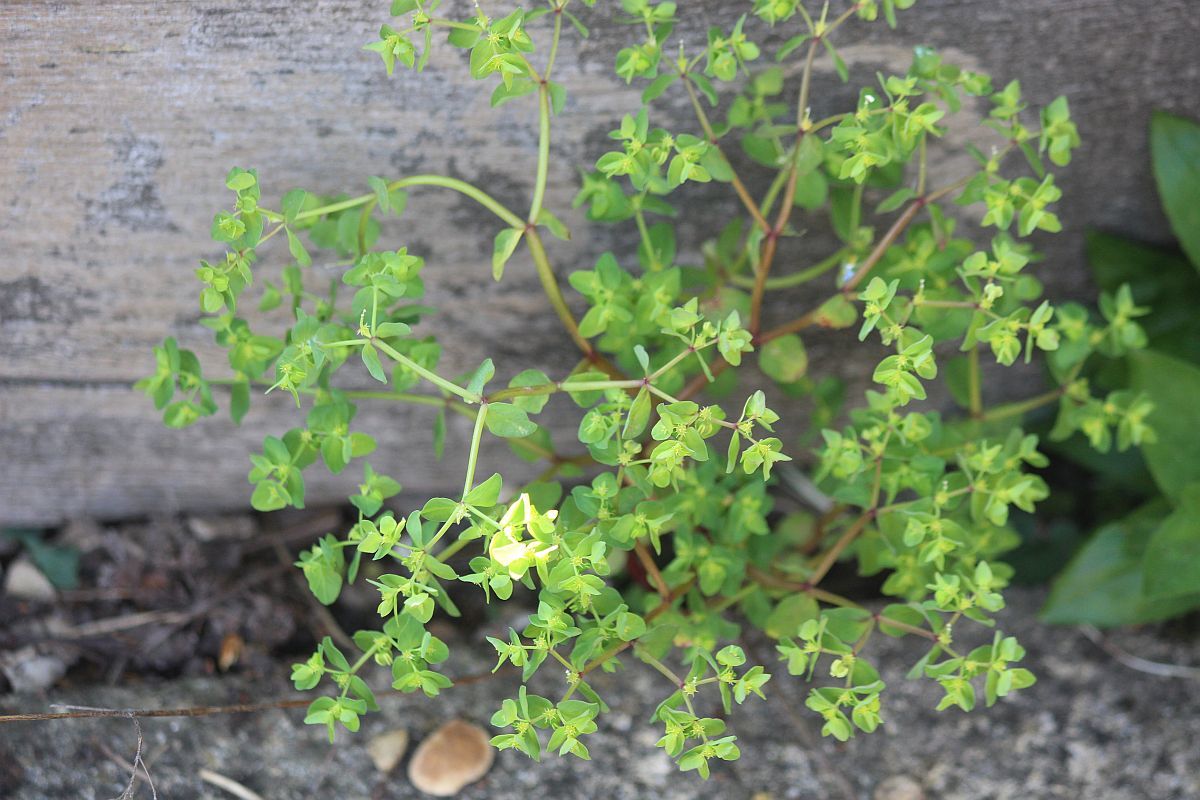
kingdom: Plantae
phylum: Tracheophyta
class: Magnoliopsida
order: Malpighiales
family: Euphorbiaceae
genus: Euphorbia
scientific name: Euphorbia peplus
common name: Petty spurge
